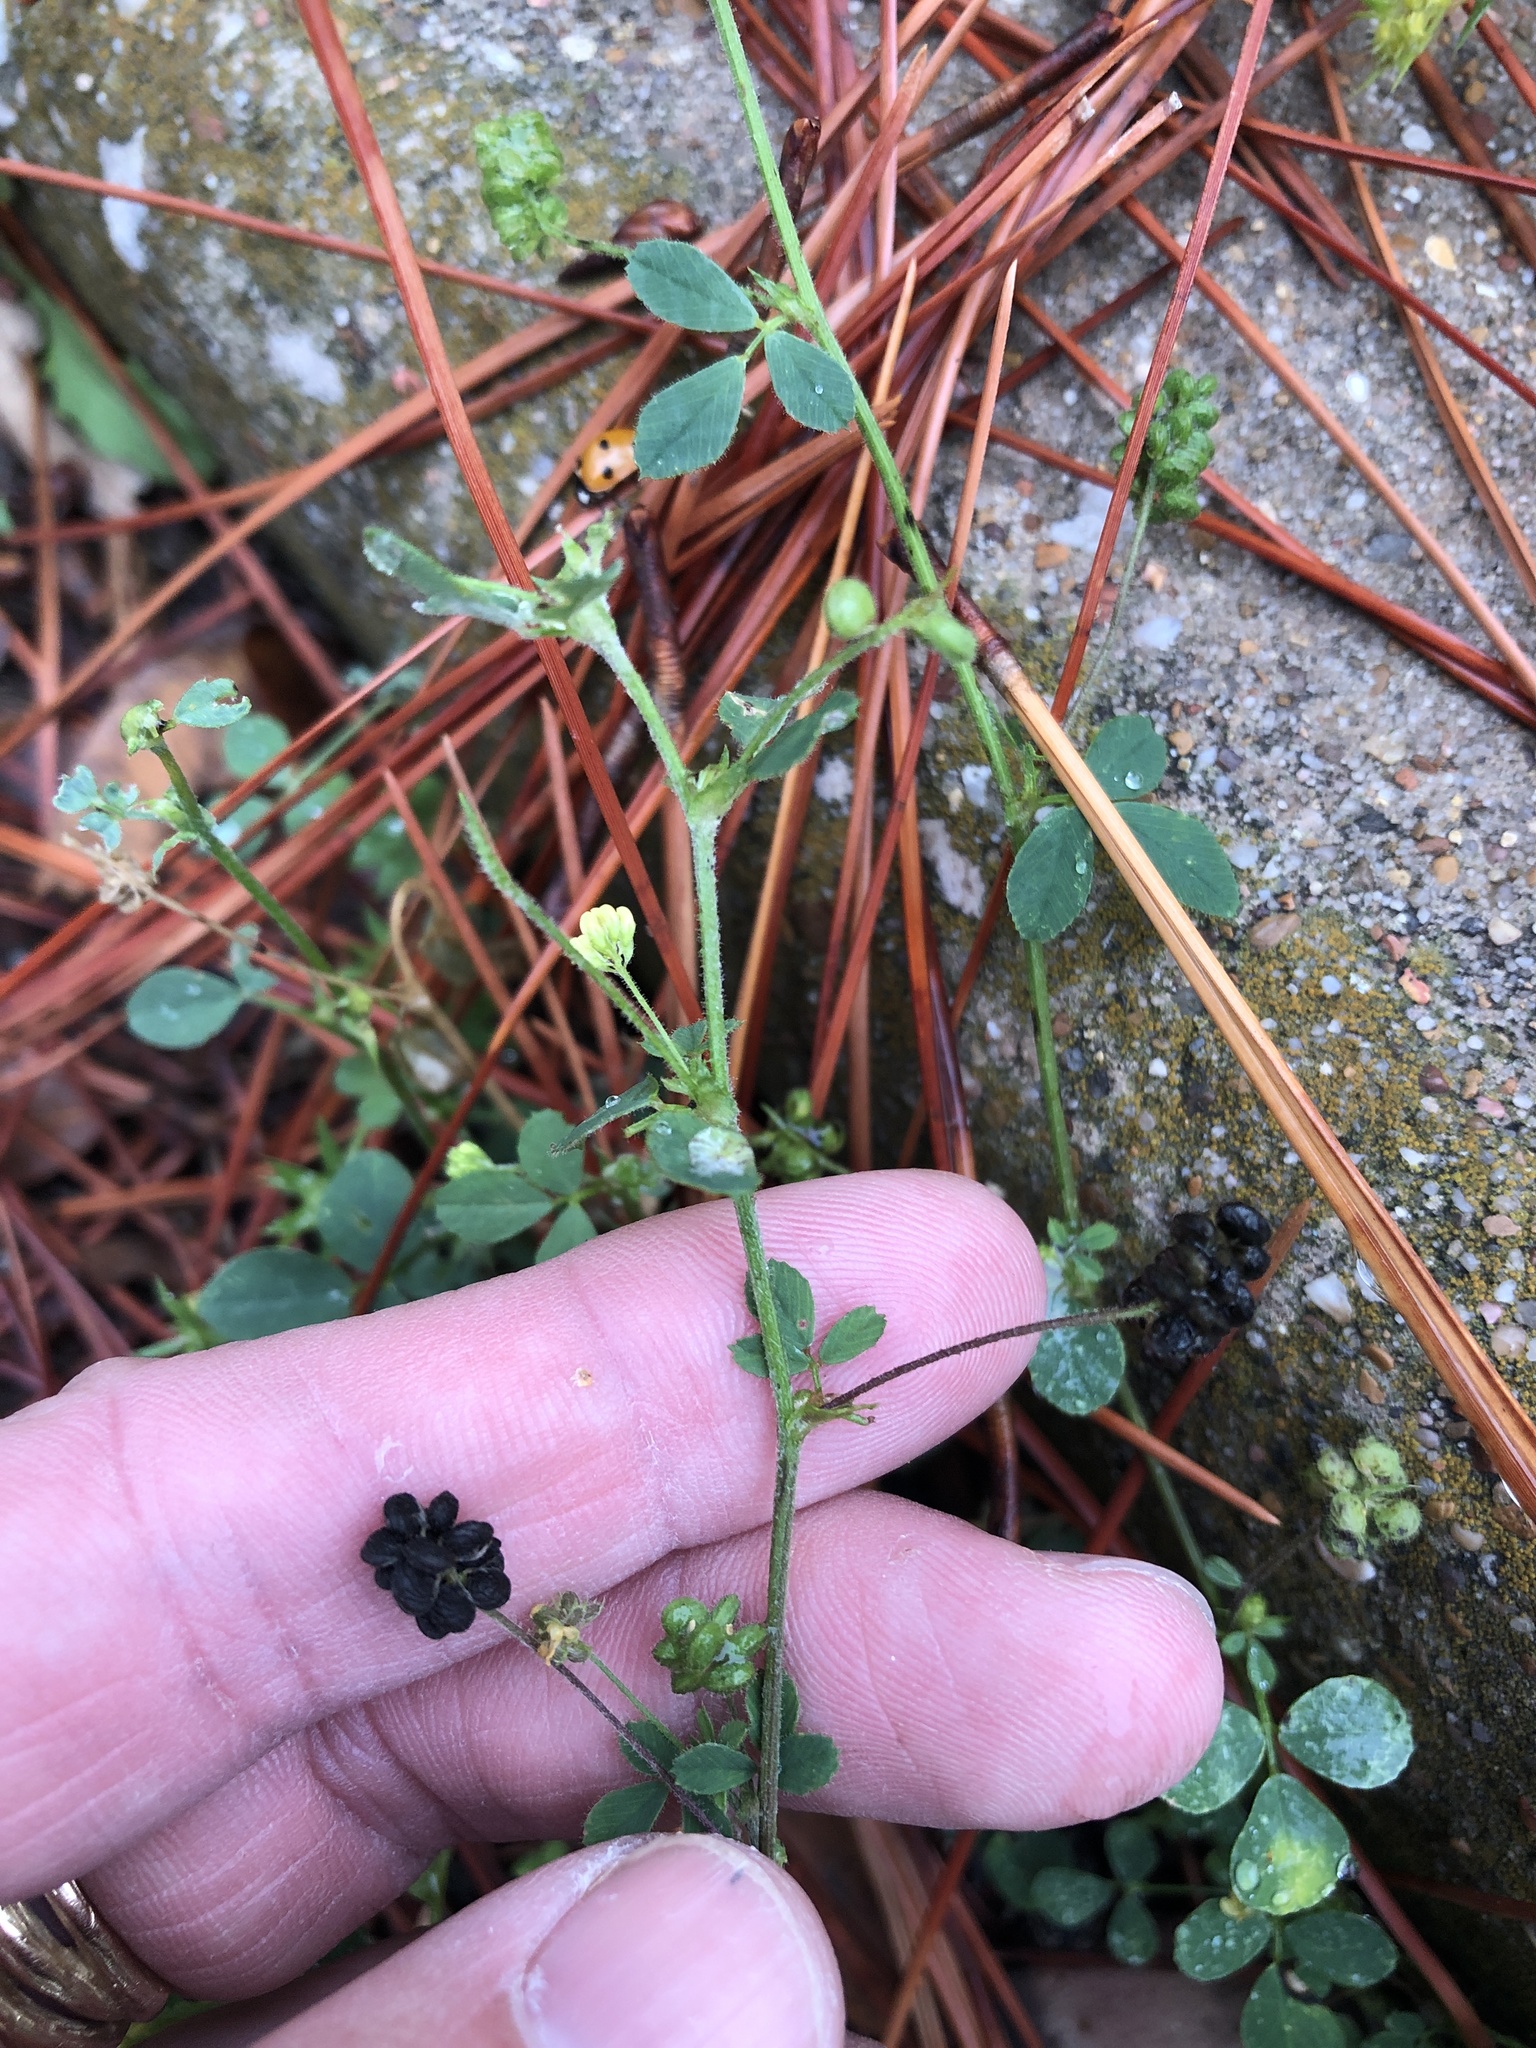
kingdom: Plantae
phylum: Tracheophyta
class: Magnoliopsida
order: Fabales
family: Fabaceae
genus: Medicago
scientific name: Medicago lupulina
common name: Black medick
